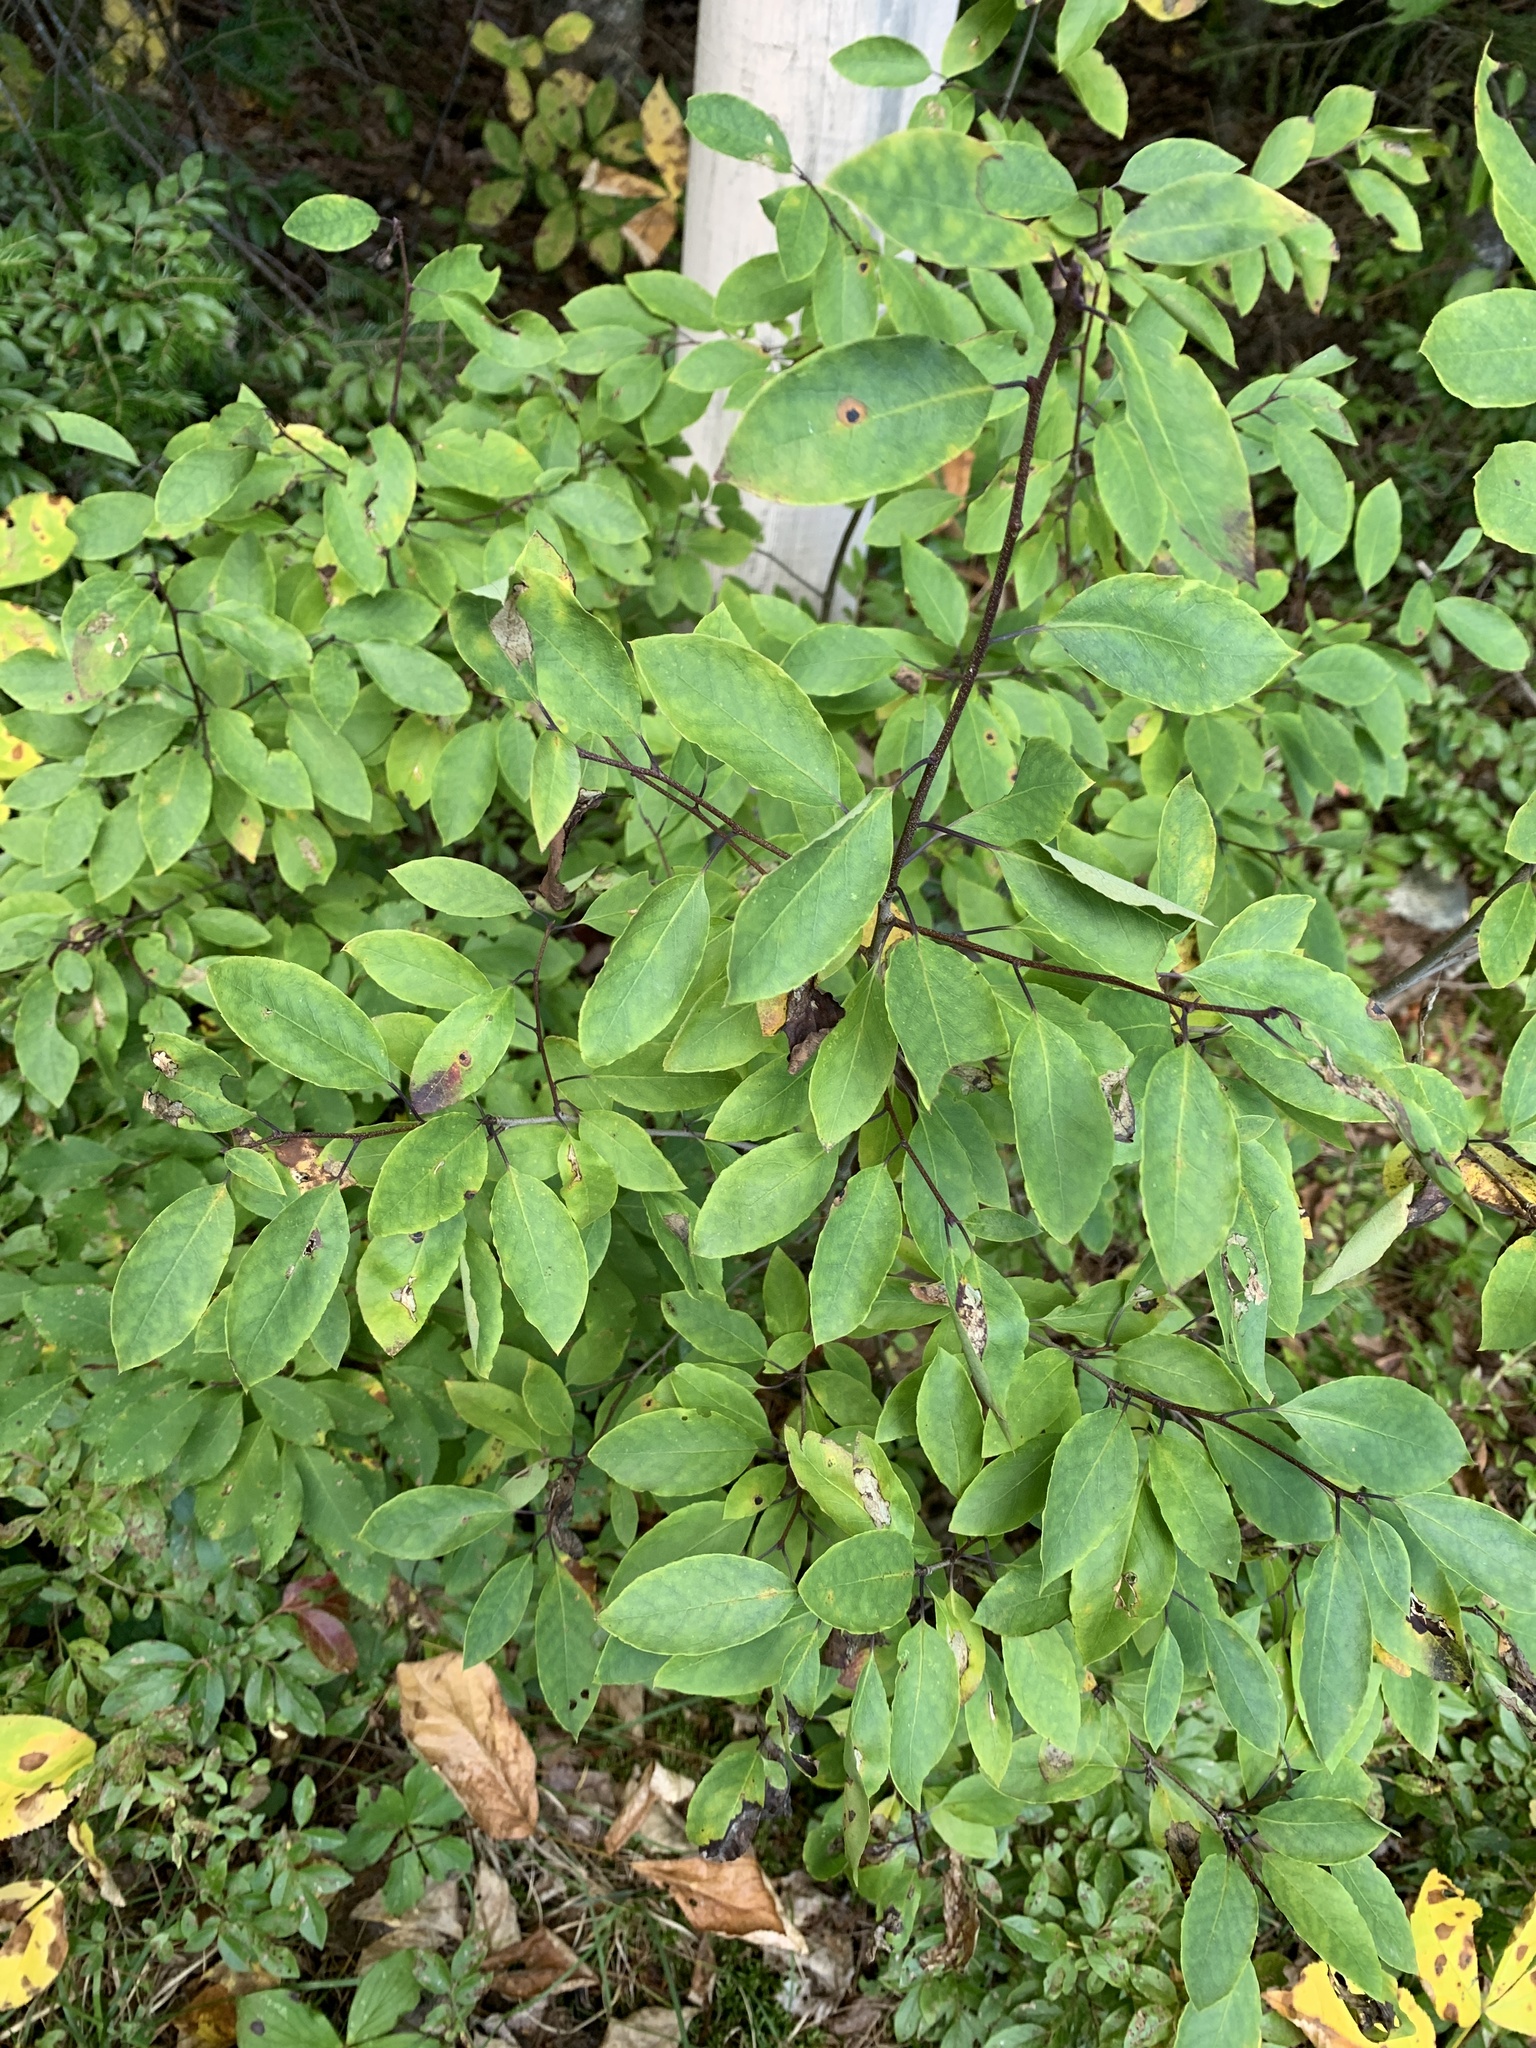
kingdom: Plantae
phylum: Tracheophyta
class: Magnoliopsida
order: Aquifoliales
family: Aquifoliaceae
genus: Ilex
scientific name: Ilex mucronata
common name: Catberry
